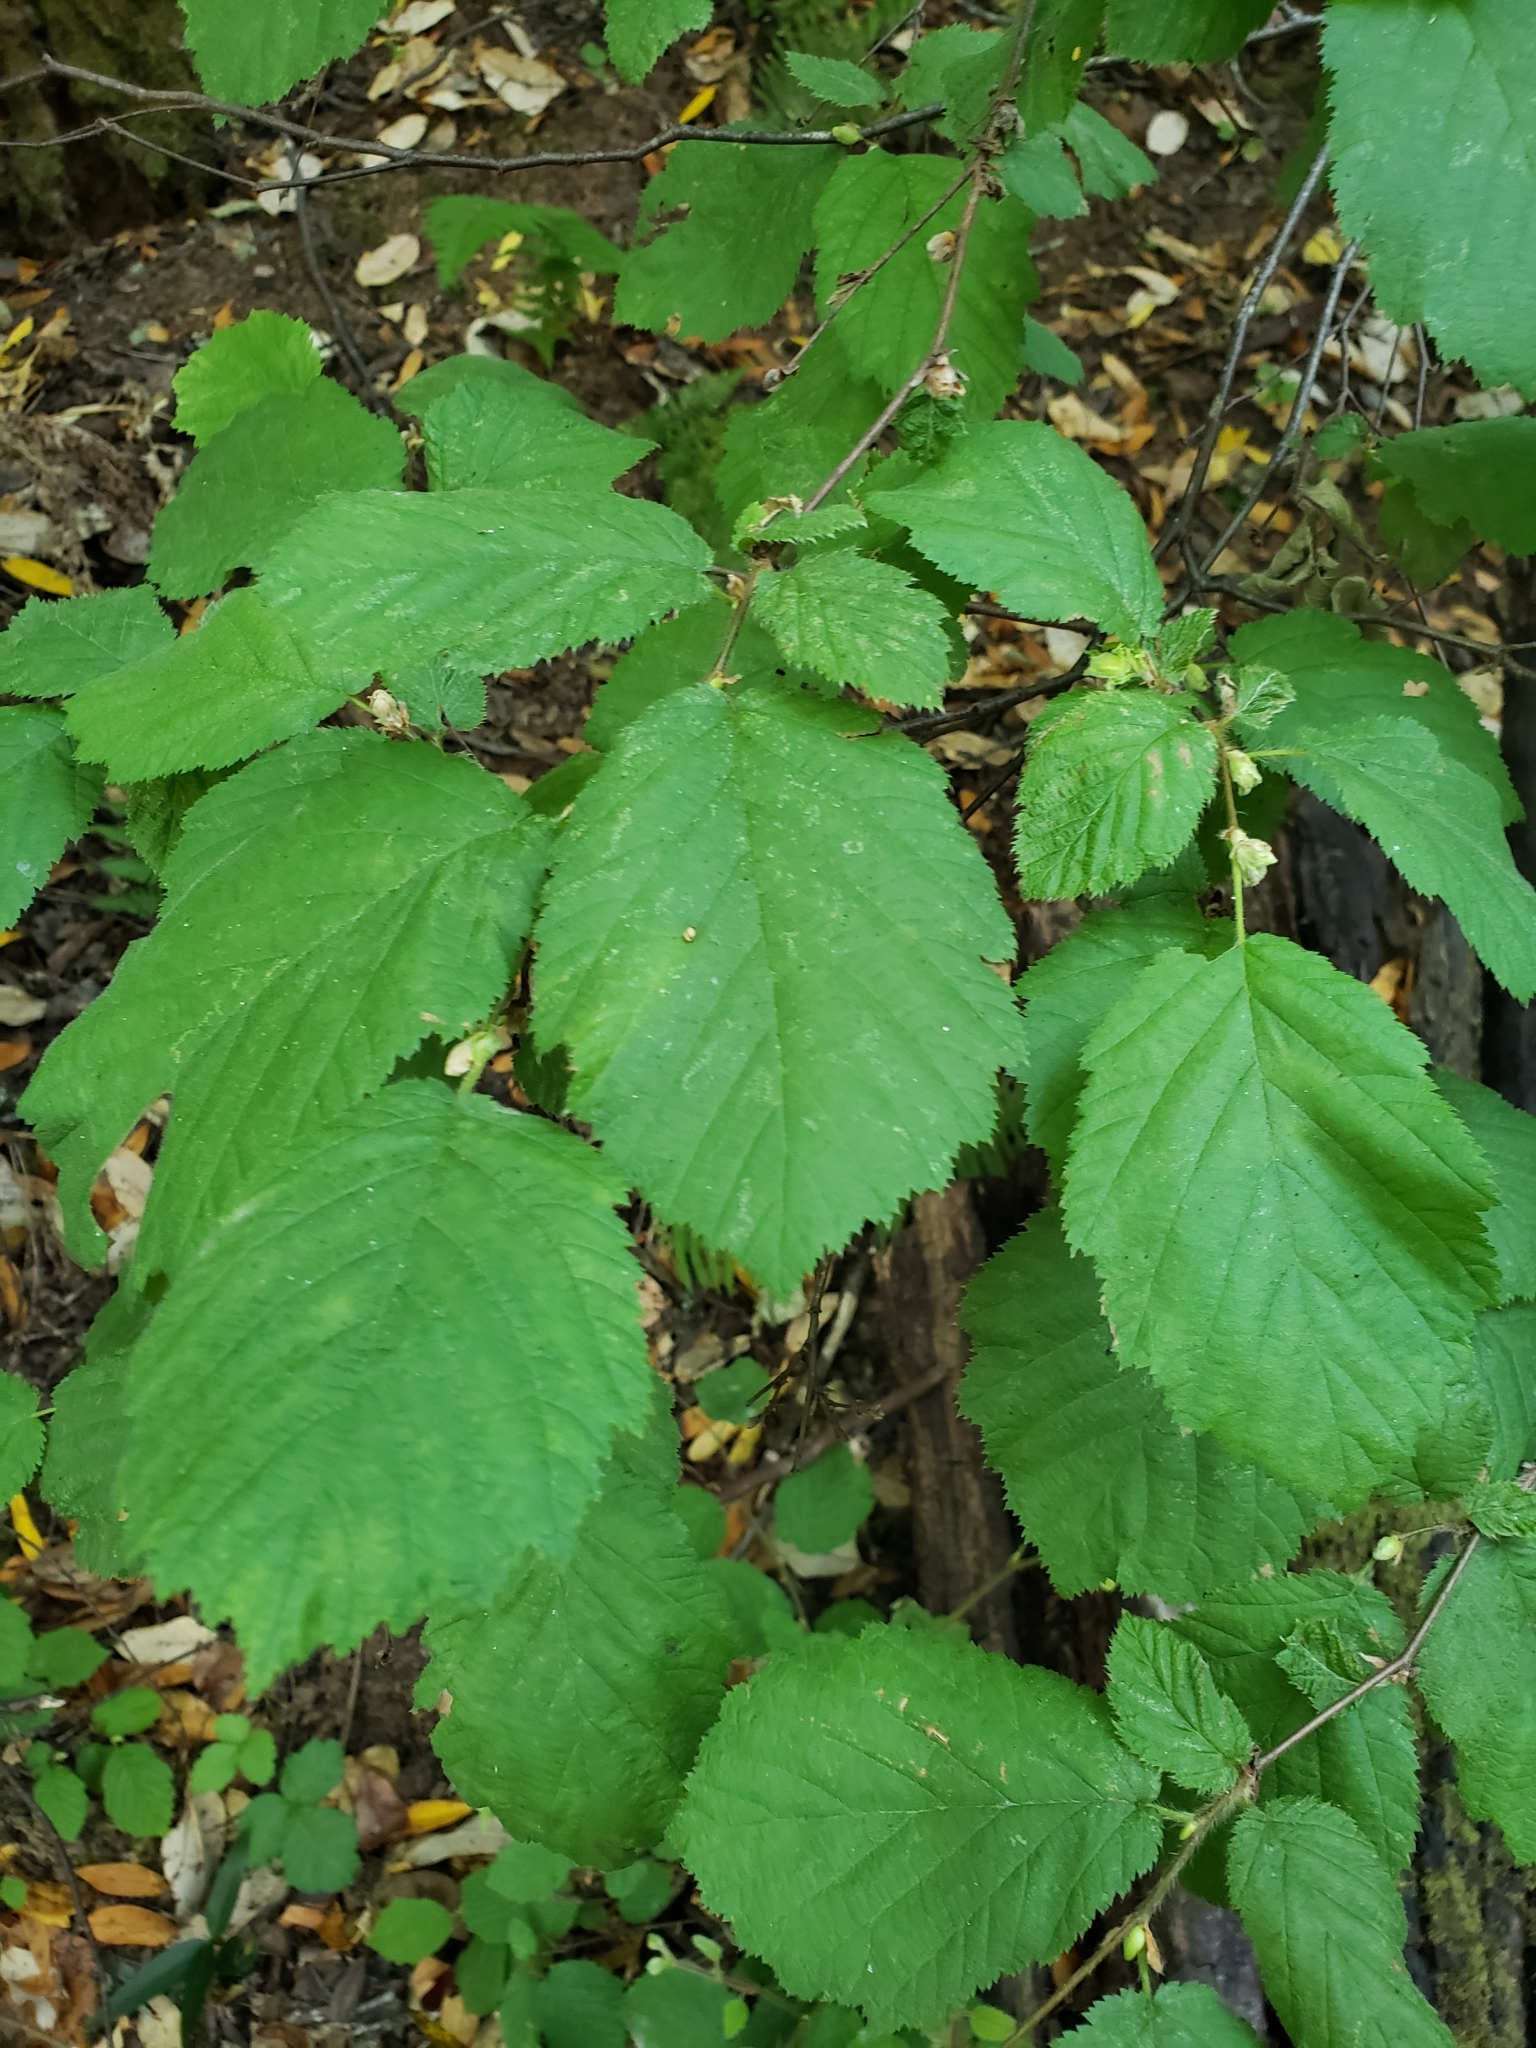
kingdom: Plantae
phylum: Tracheophyta
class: Magnoliopsida
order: Fagales
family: Betulaceae
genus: Corylus
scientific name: Corylus cornuta
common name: Beaked hazel
